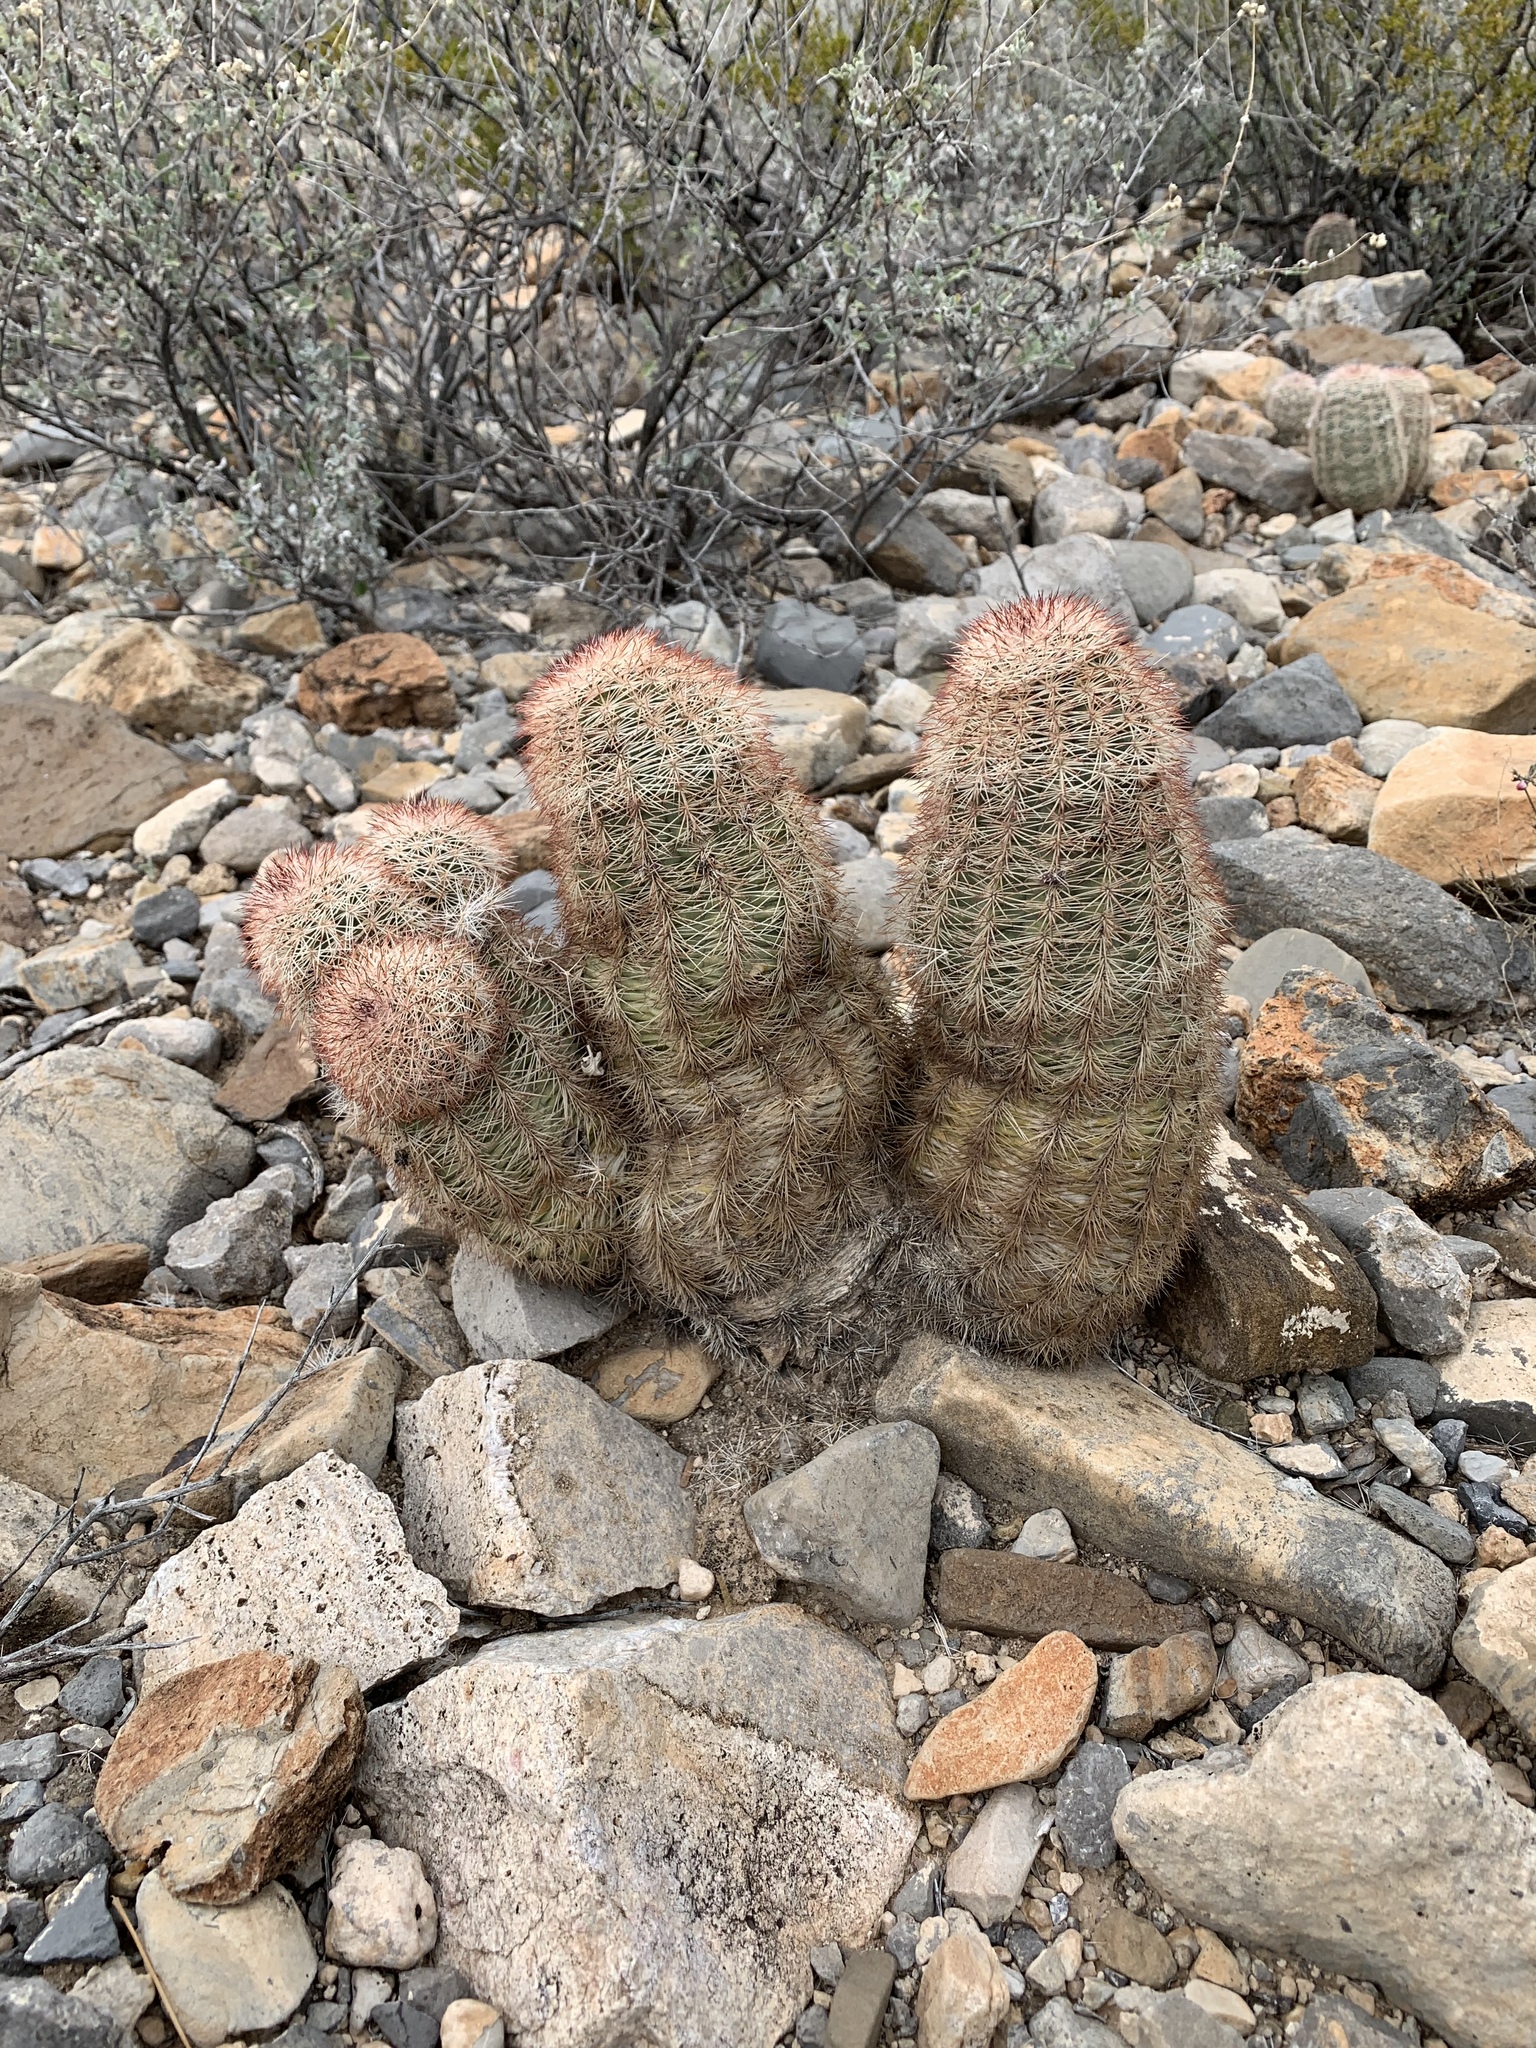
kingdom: Plantae
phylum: Tracheophyta
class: Magnoliopsida
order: Caryophyllales
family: Cactaceae
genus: Echinocereus
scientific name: Echinocereus dasyacanthus
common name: Spiny hedgehog cactus
